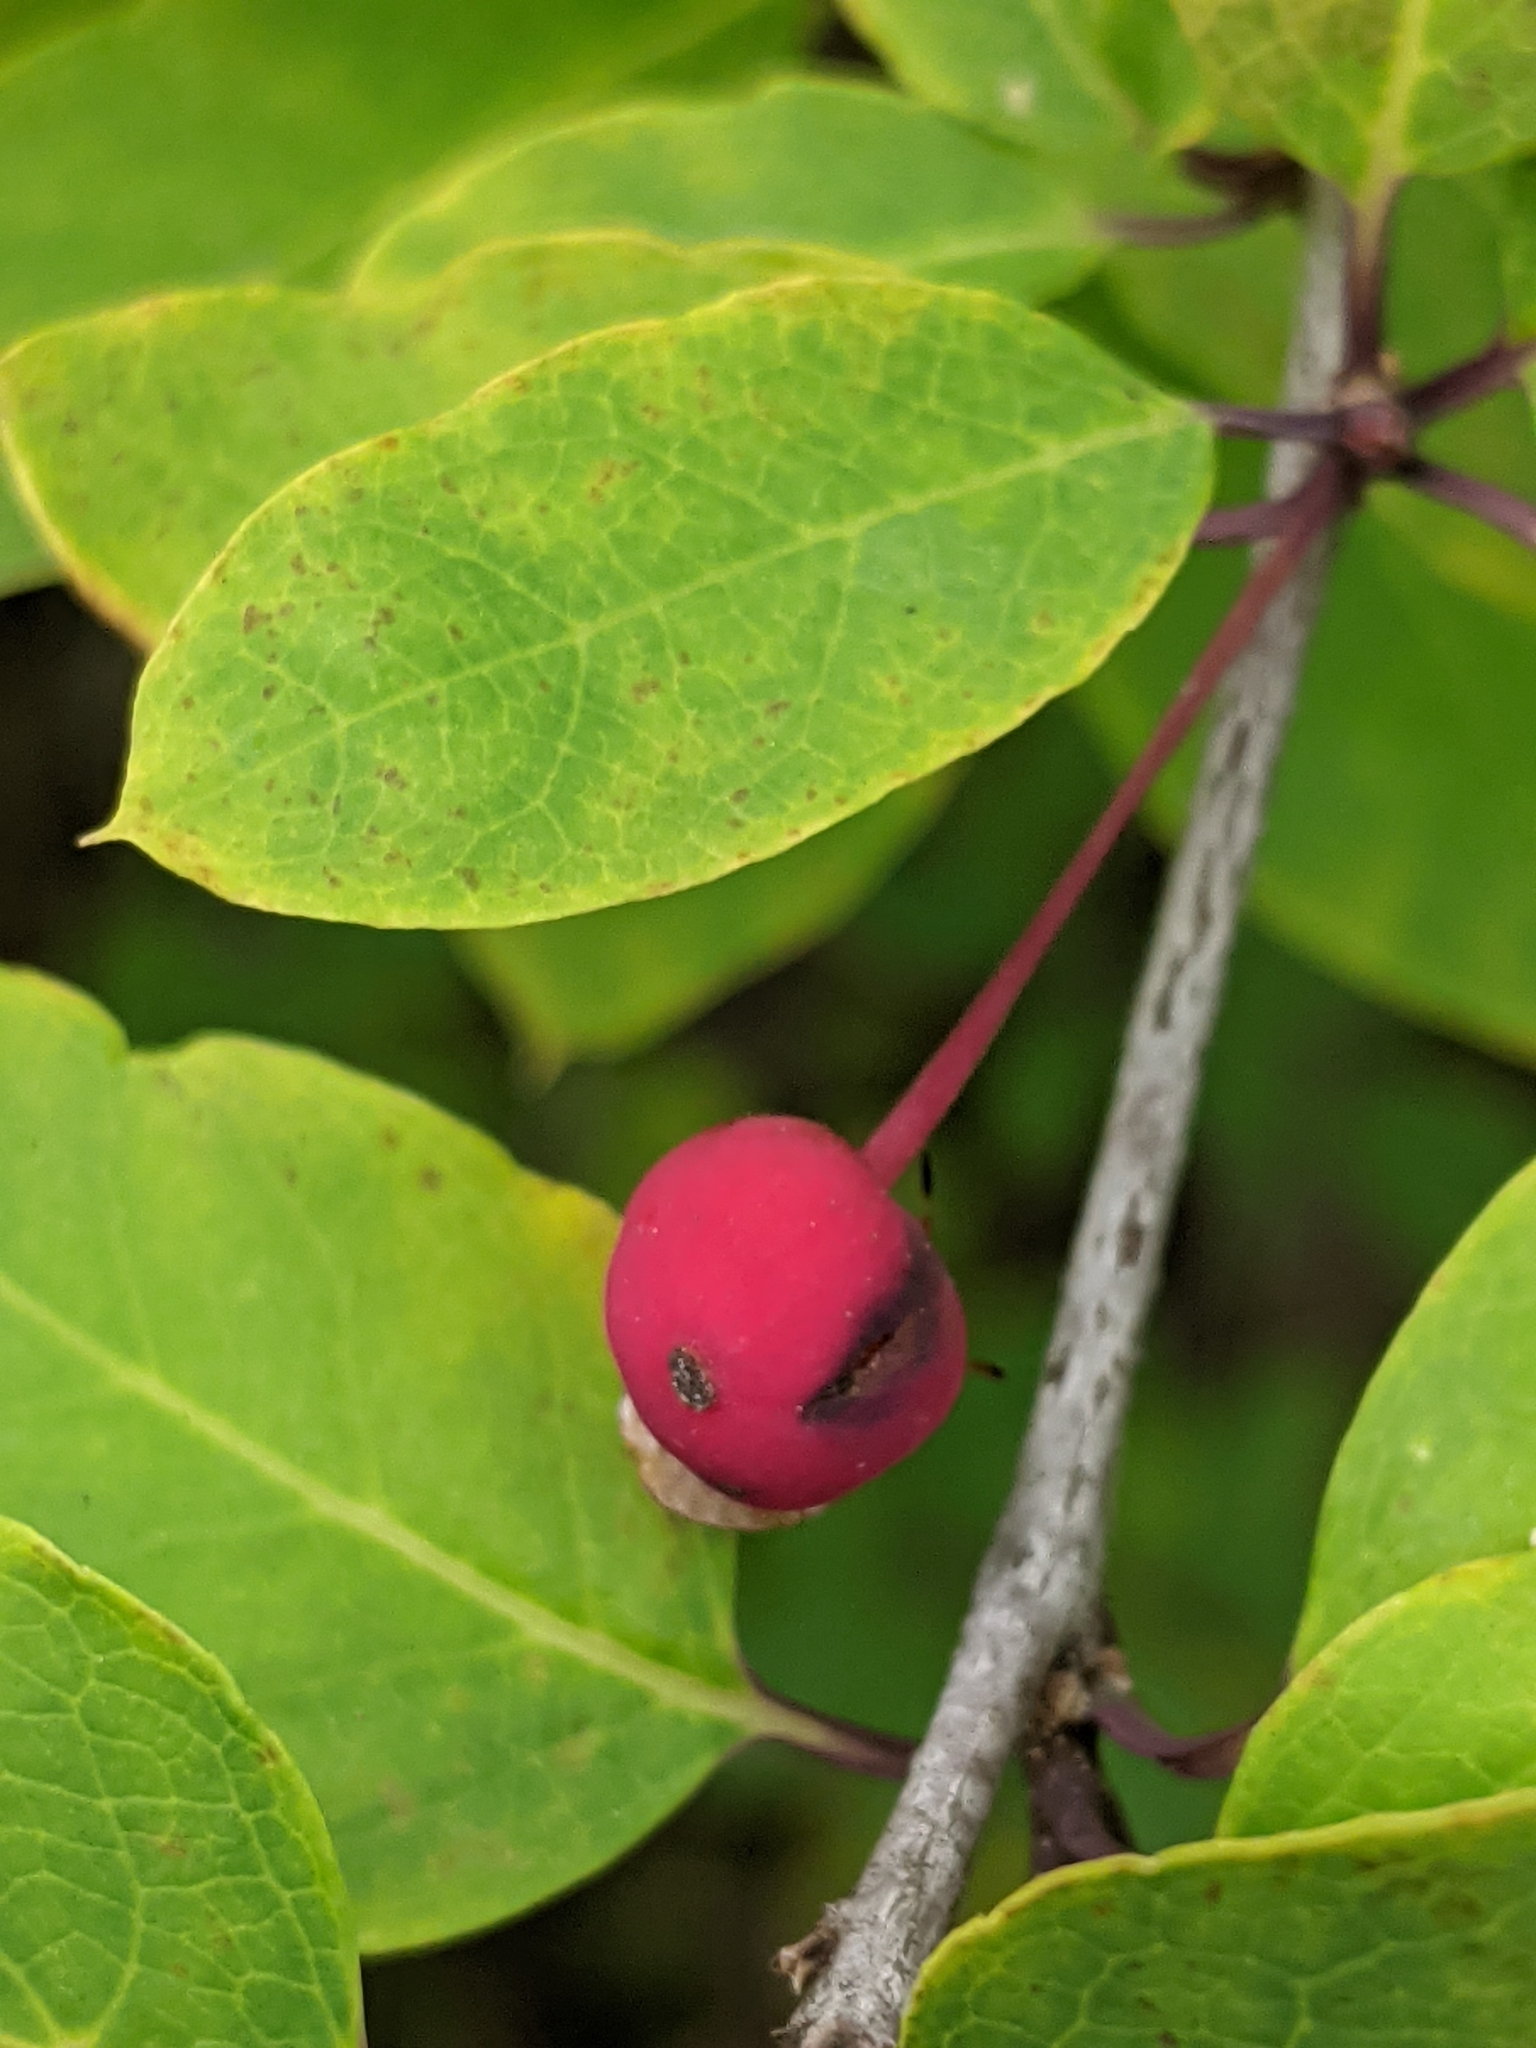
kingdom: Plantae
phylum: Tracheophyta
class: Magnoliopsida
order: Aquifoliales
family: Aquifoliaceae
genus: Ilex
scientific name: Ilex mucronata
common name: Catberry
